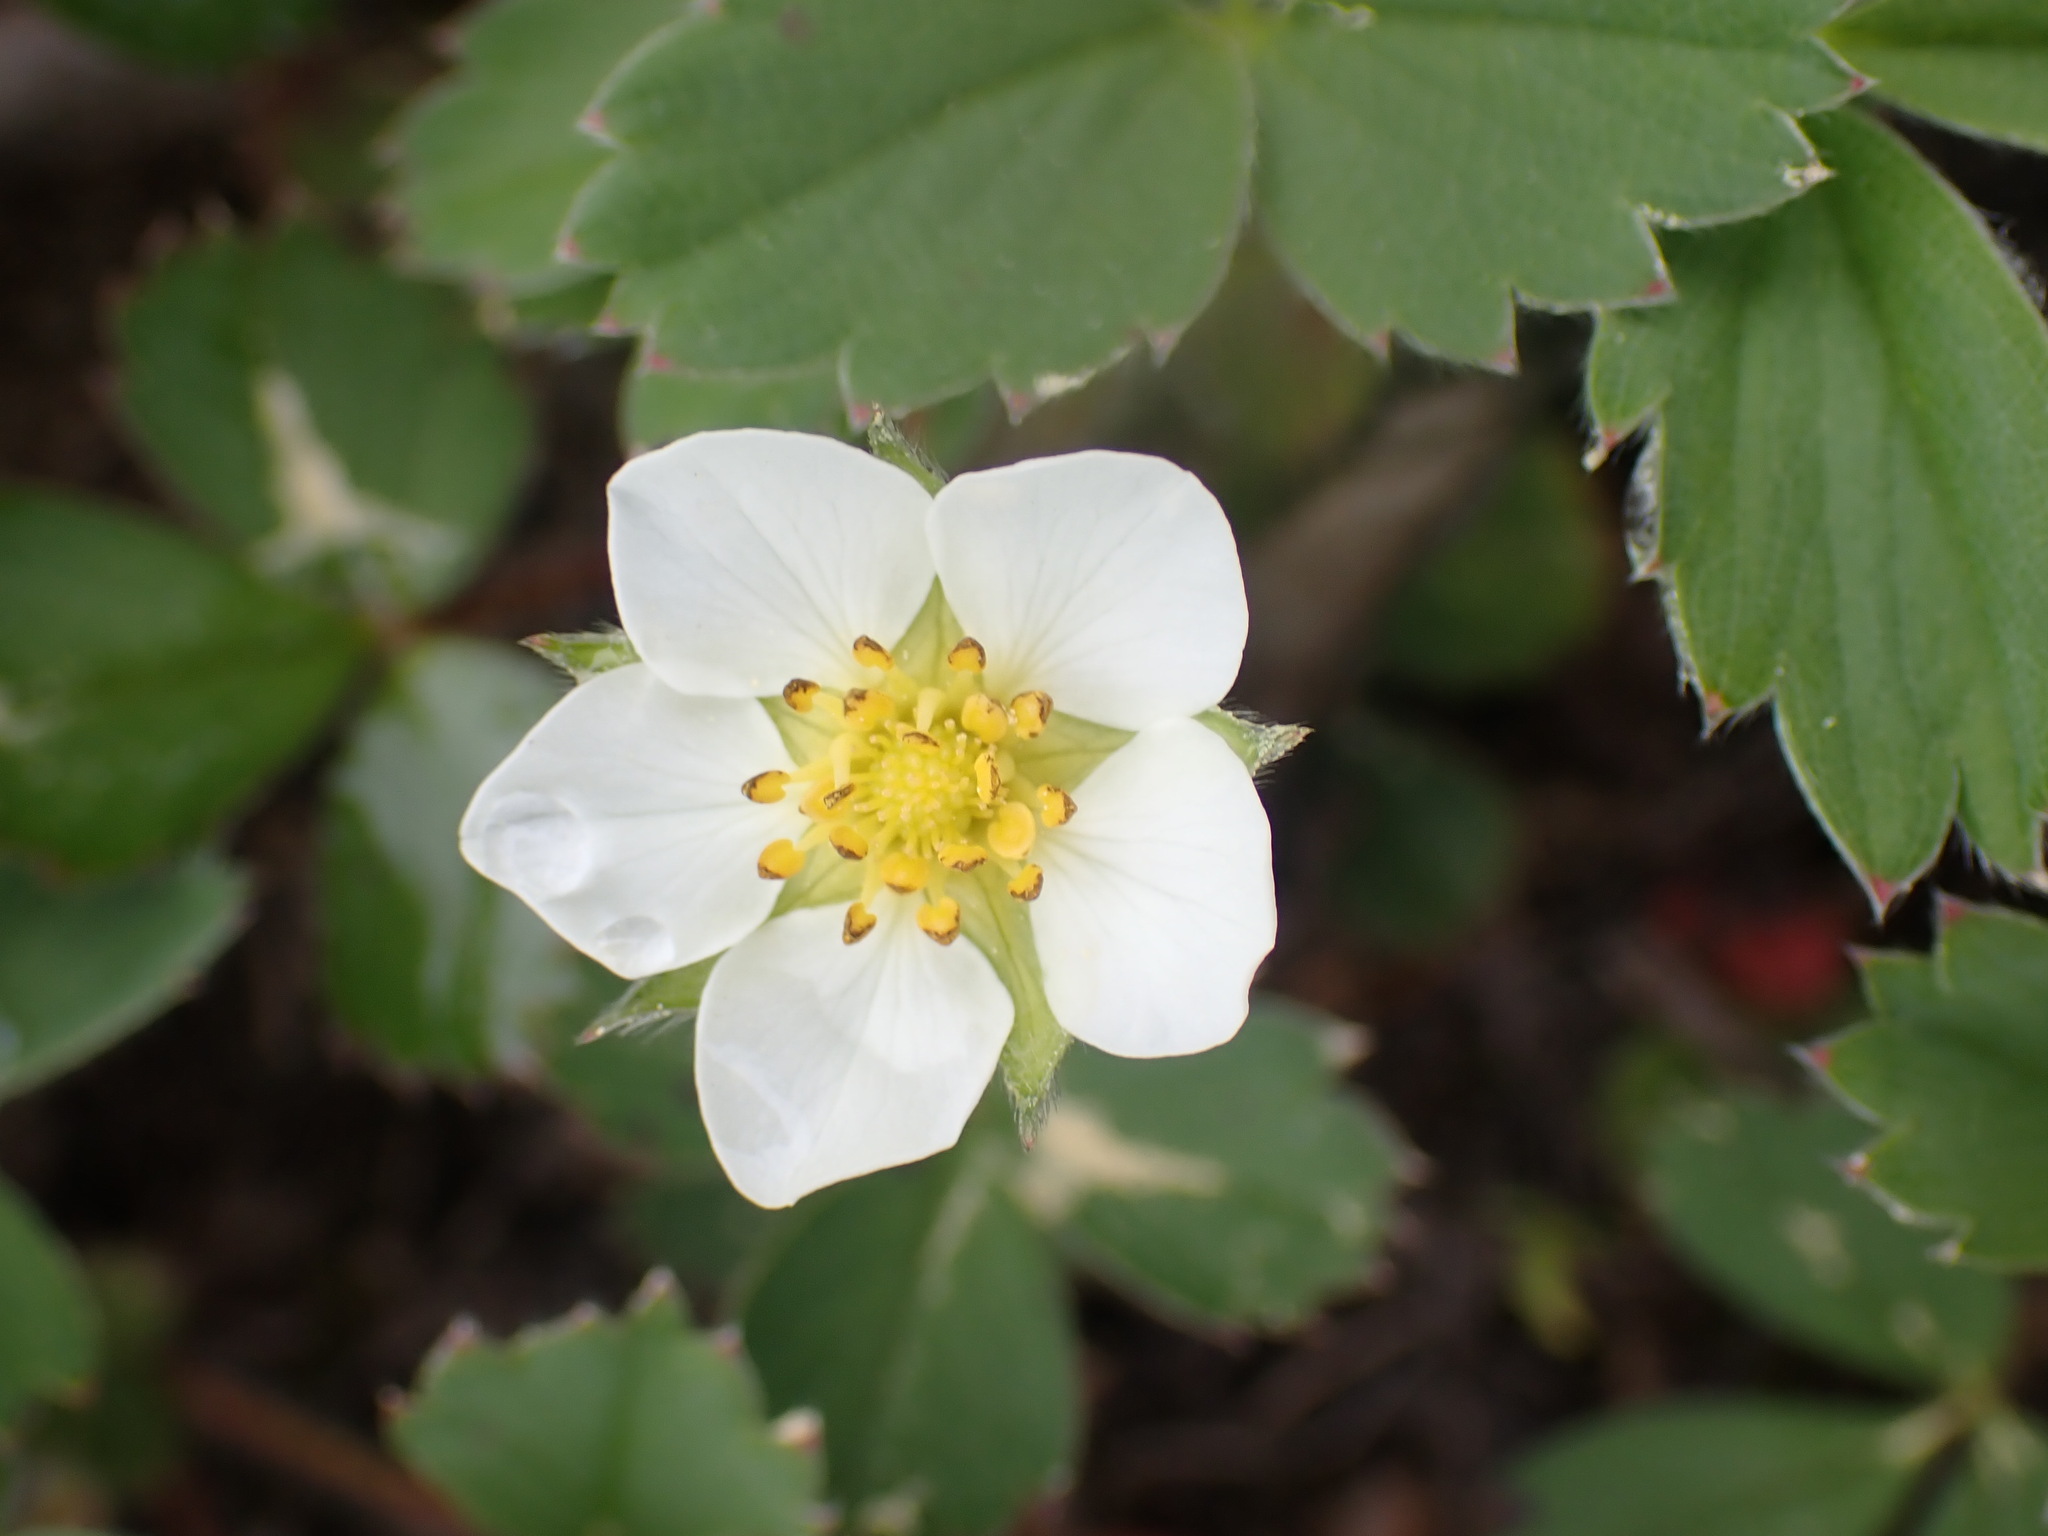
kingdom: Plantae
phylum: Tracheophyta
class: Magnoliopsida
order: Rosales
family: Rosaceae
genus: Fragaria
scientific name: Fragaria virginiana
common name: Thickleaved wild strawberry
